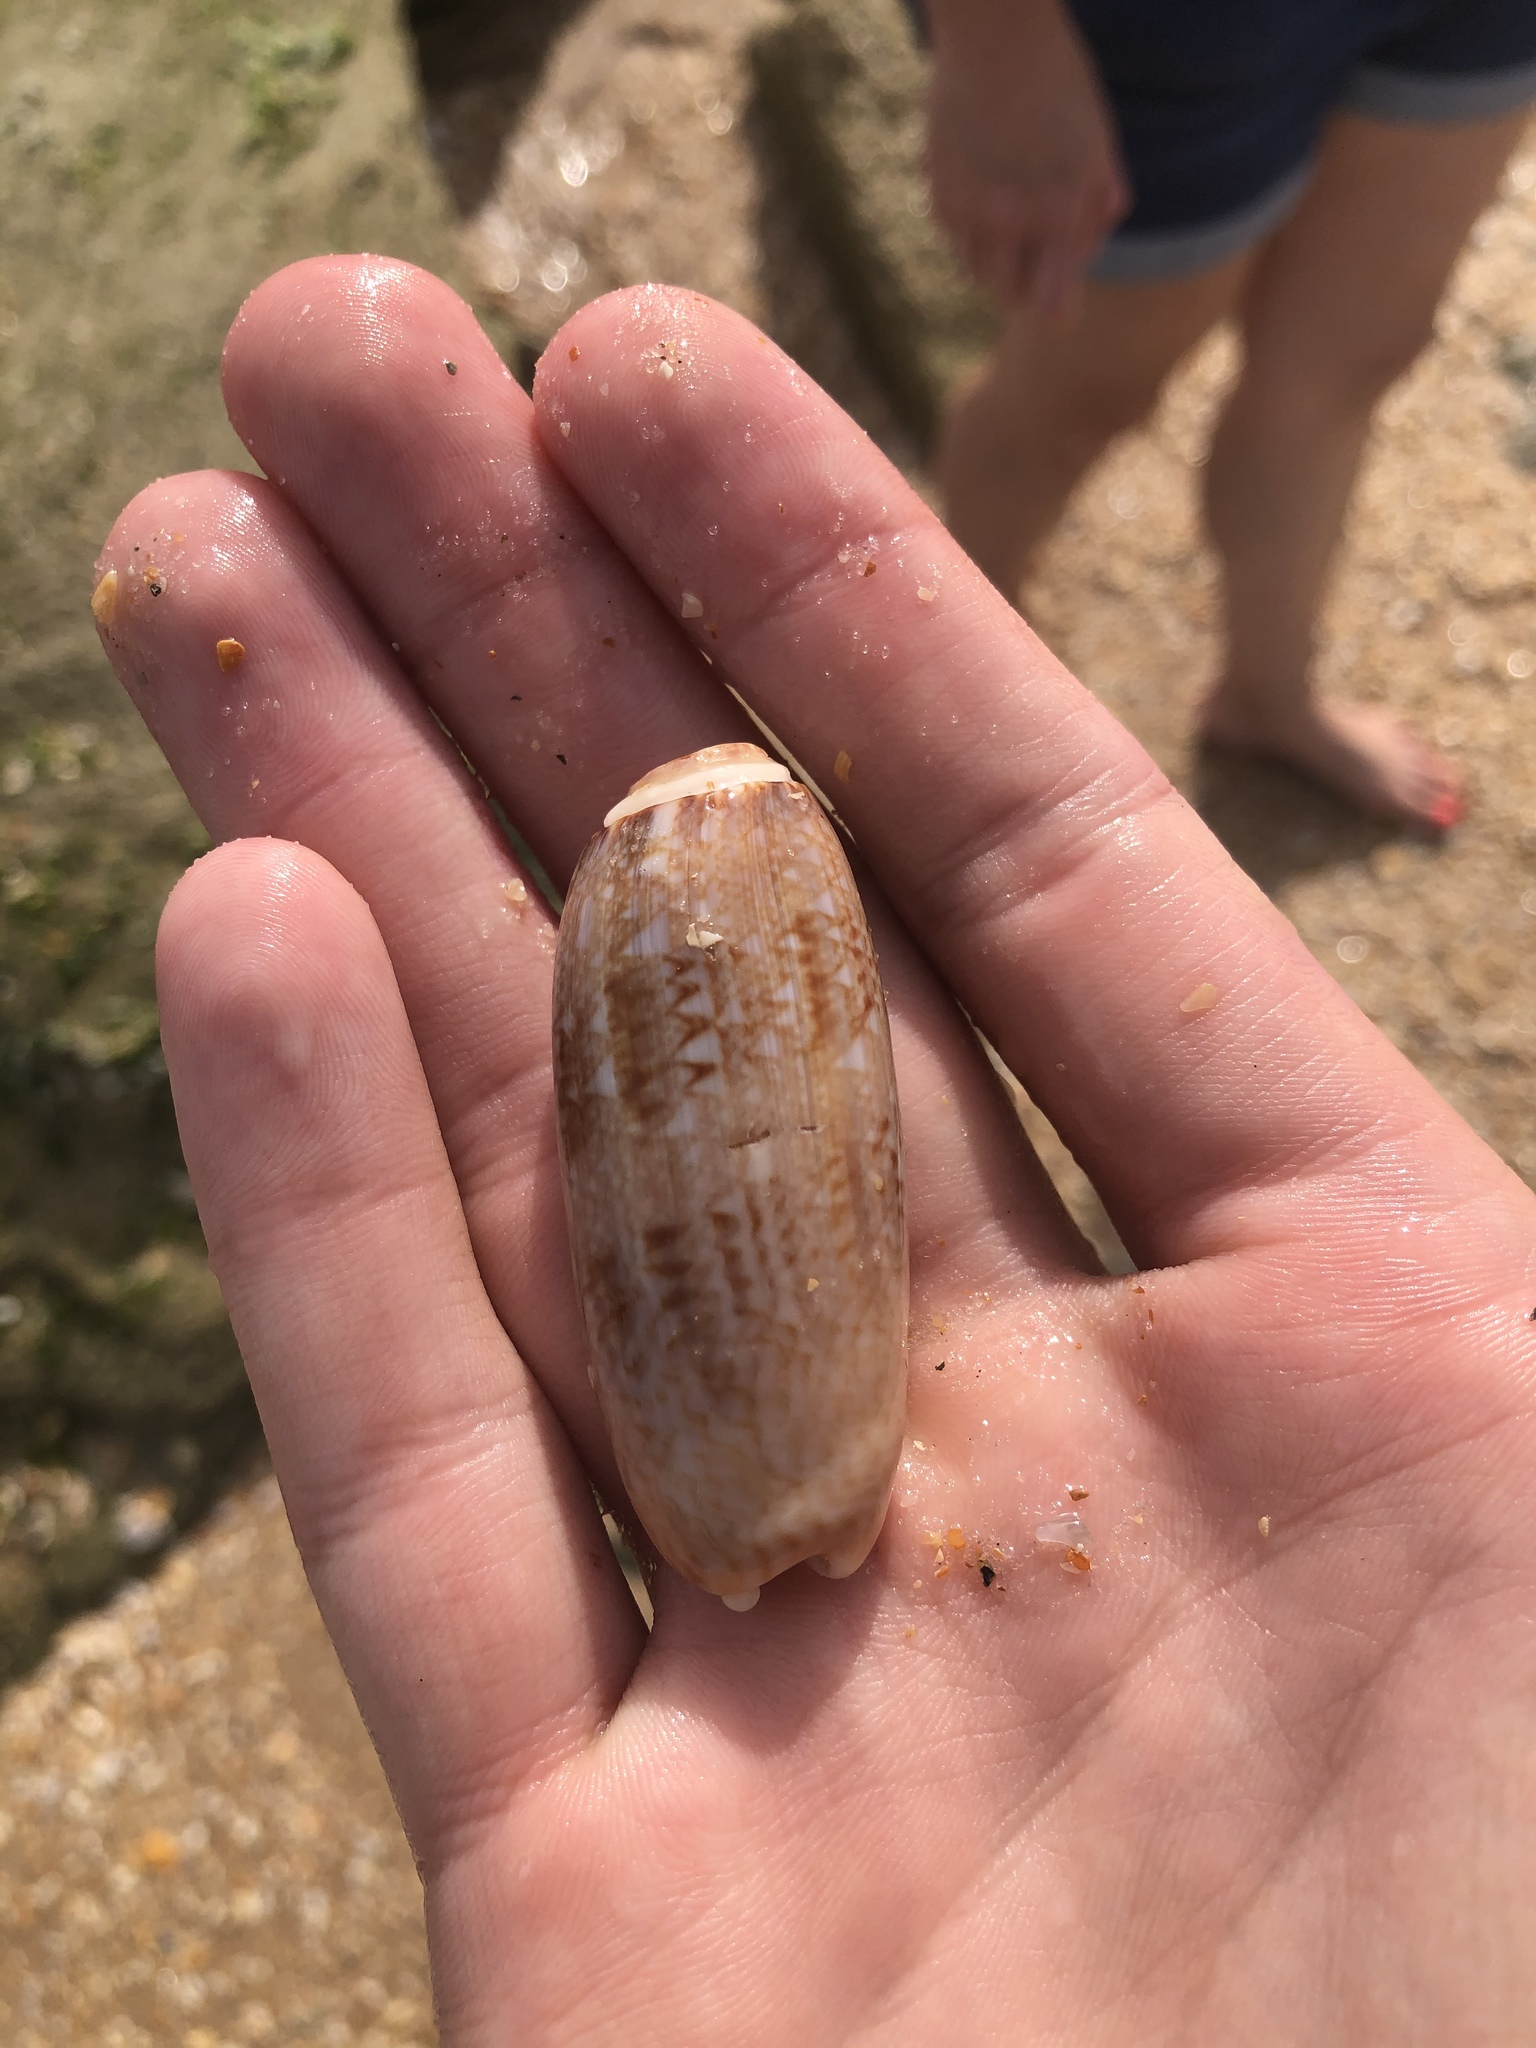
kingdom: Animalia
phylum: Mollusca
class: Gastropoda
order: Neogastropoda
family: Olividae
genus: Oliva
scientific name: Oliva sayana
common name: Lettered olive
